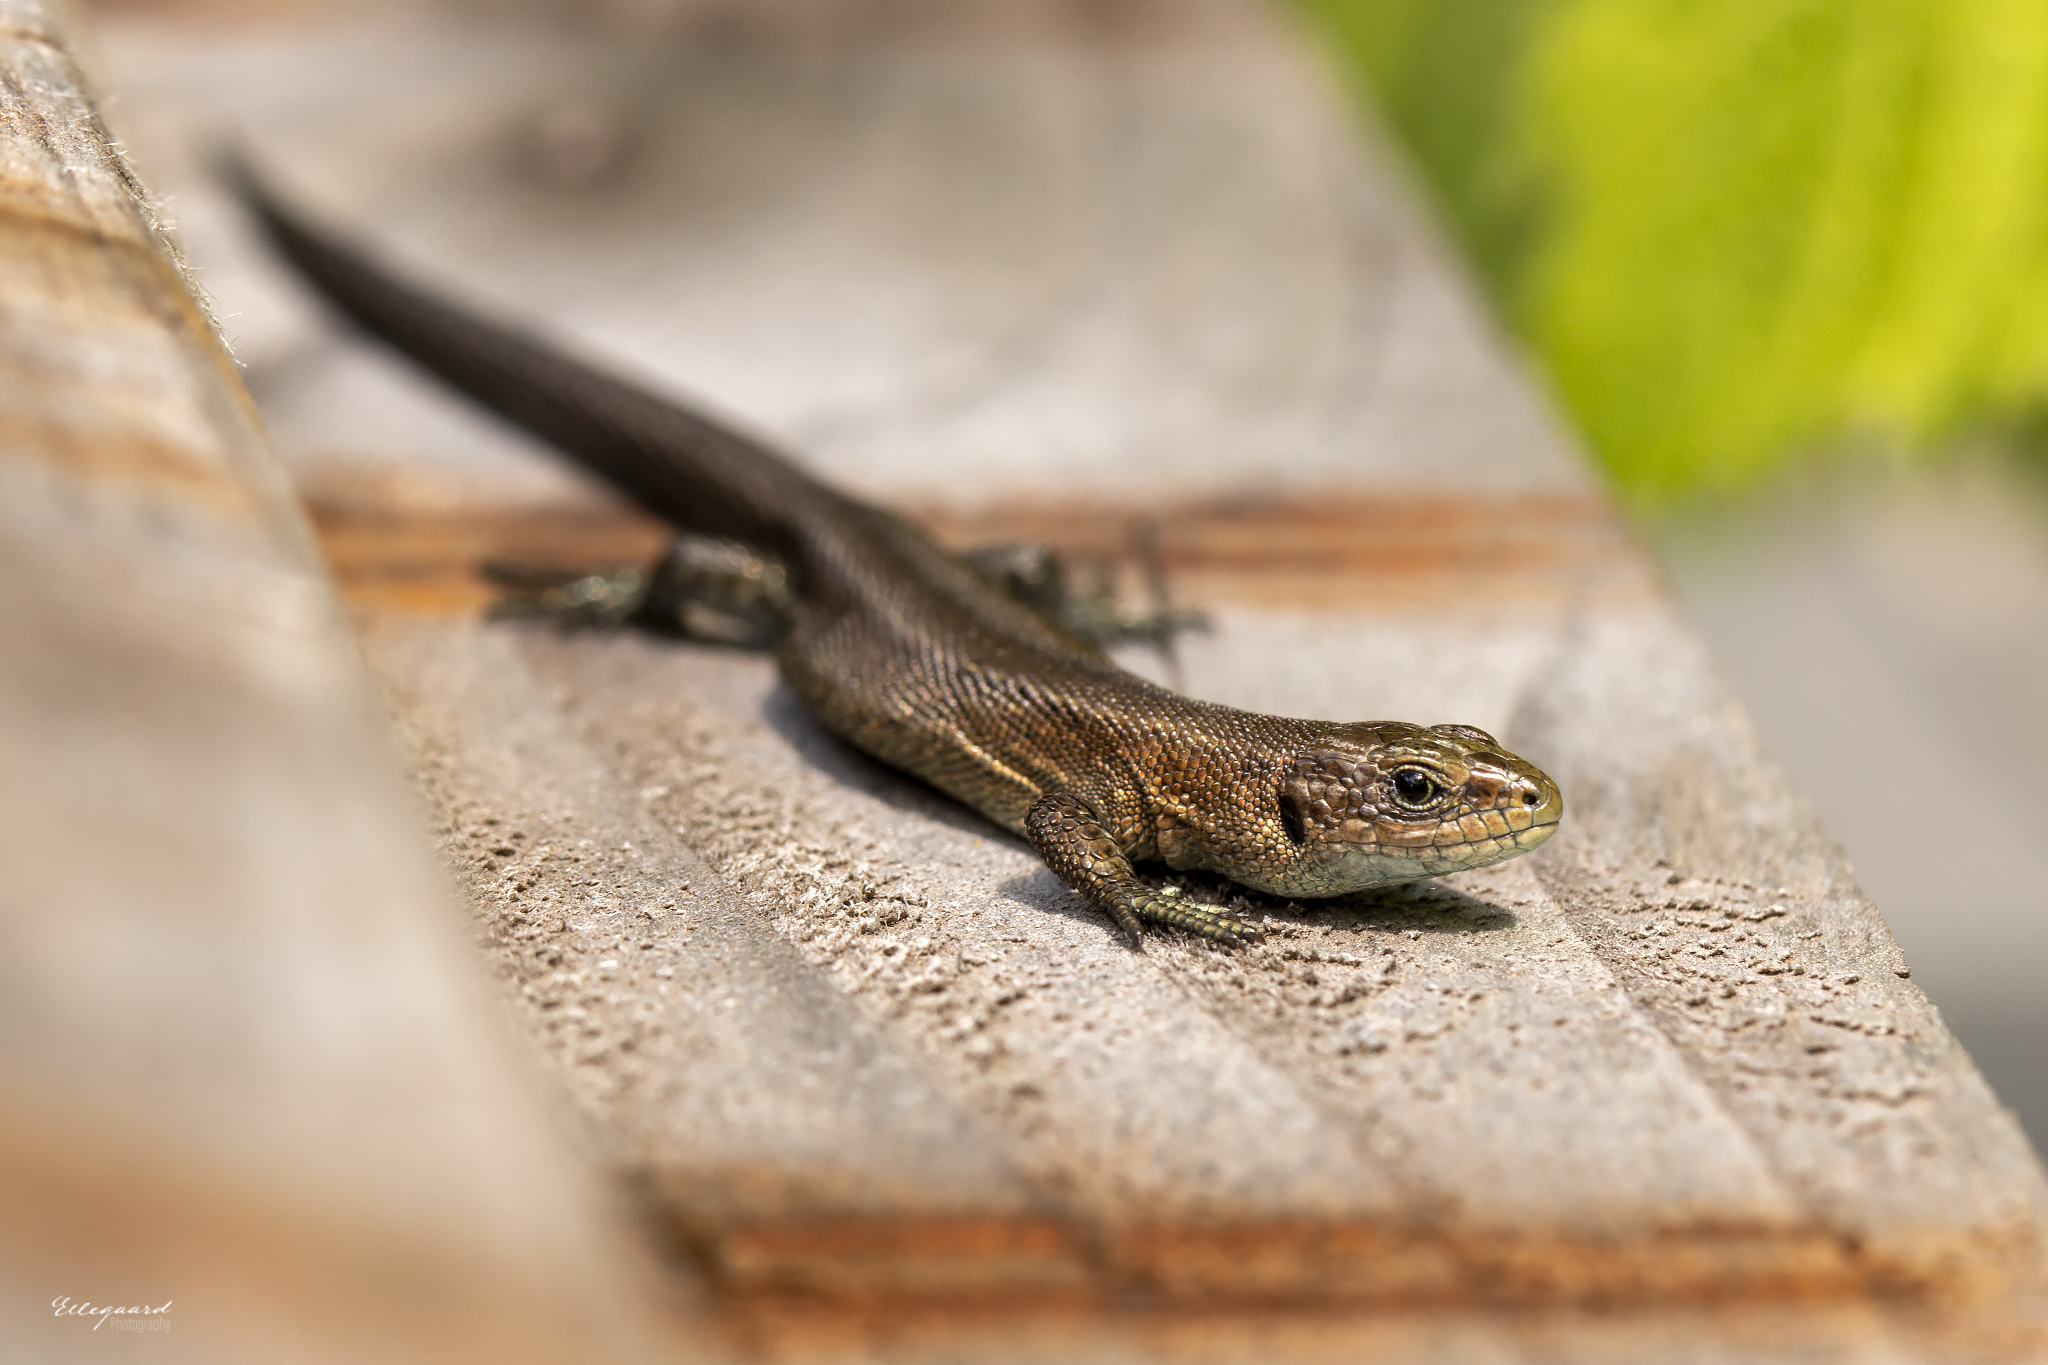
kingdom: Animalia
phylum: Chordata
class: Squamata
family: Lacertidae
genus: Zootoca
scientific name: Zootoca vivipara
